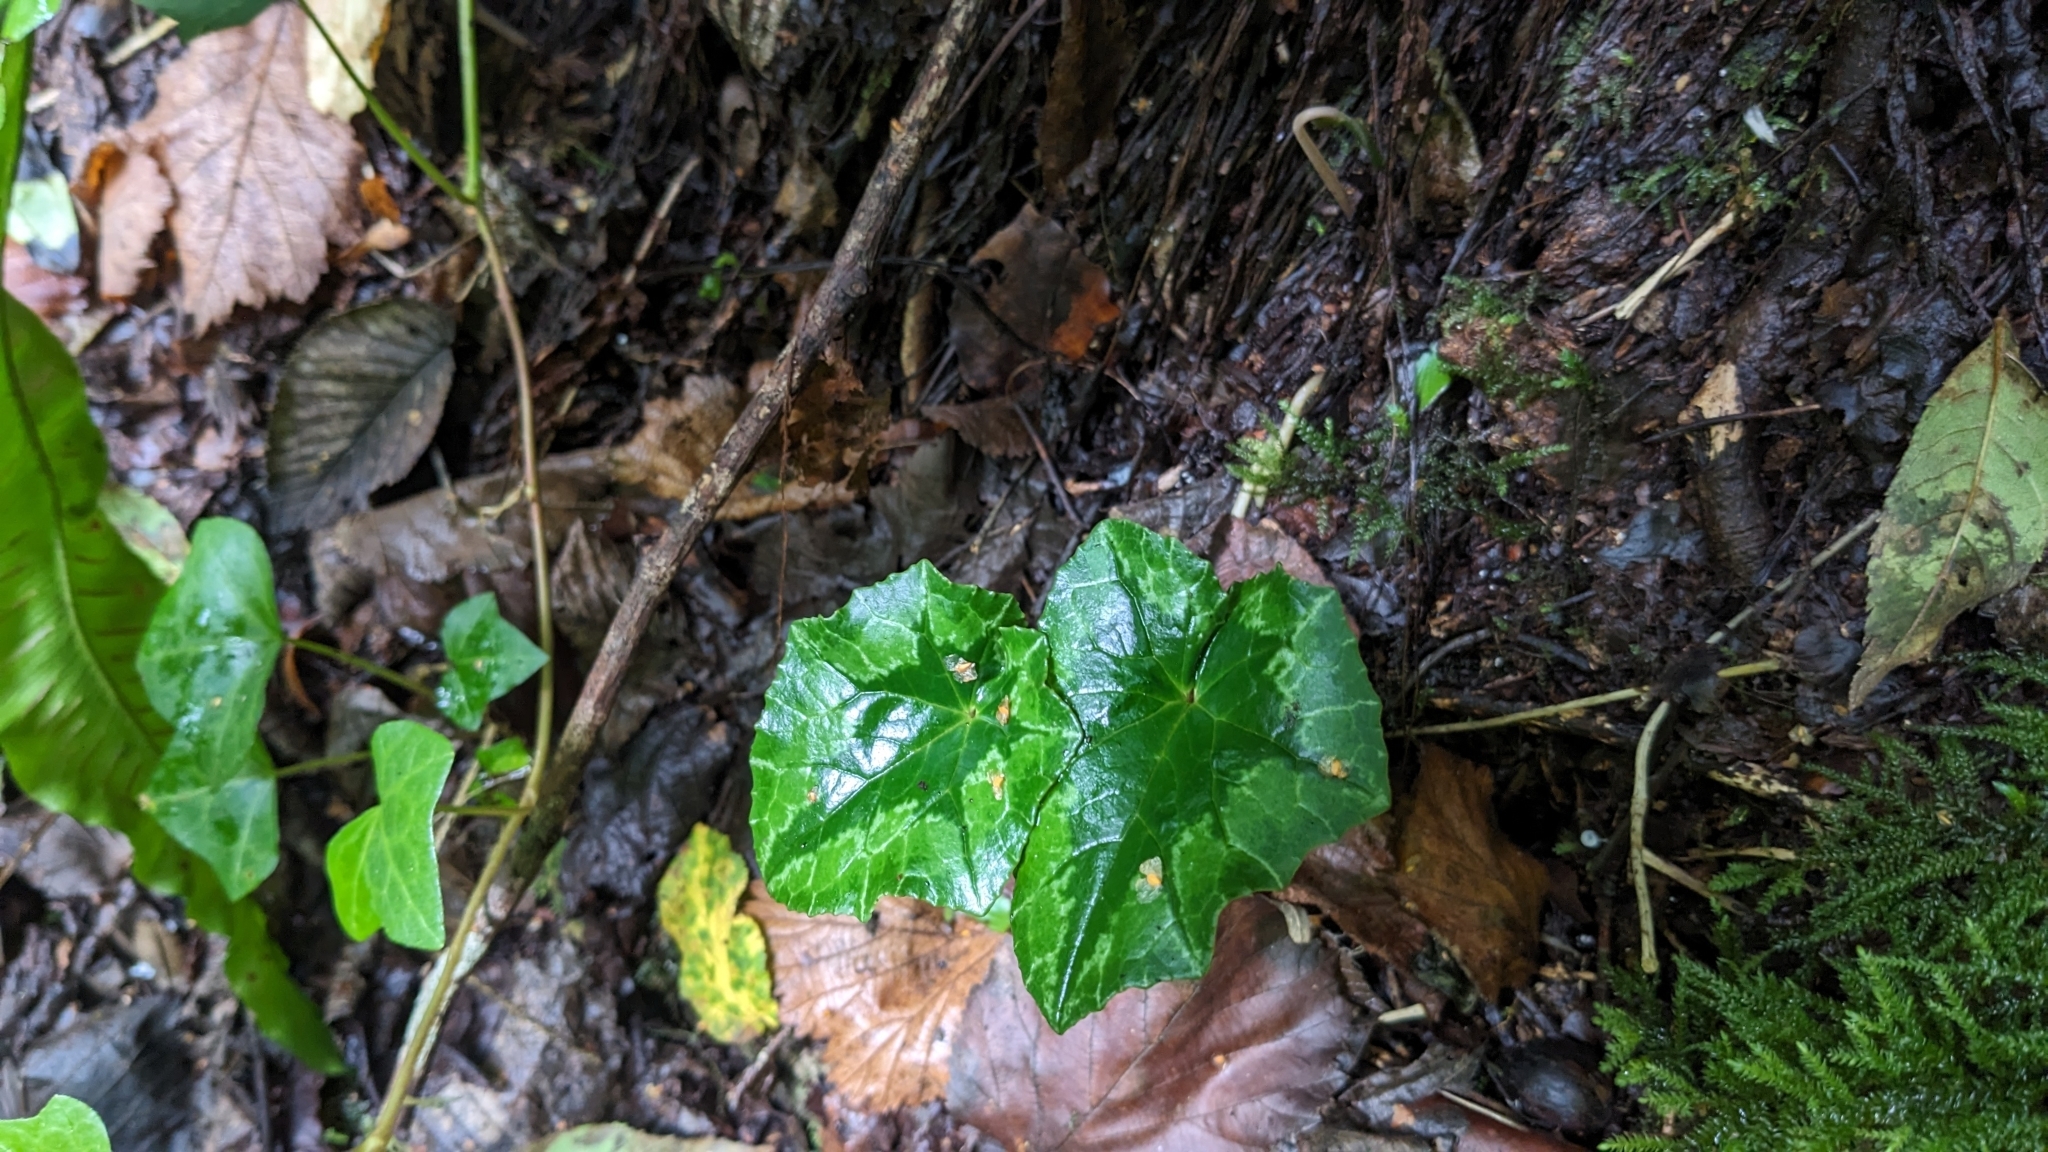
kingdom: Plantae
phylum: Tracheophyta
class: Magnoliopsida
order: Ericales
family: Primulaceae
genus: Cyclamen
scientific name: Cyclamen hederifolium
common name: Sowbread
